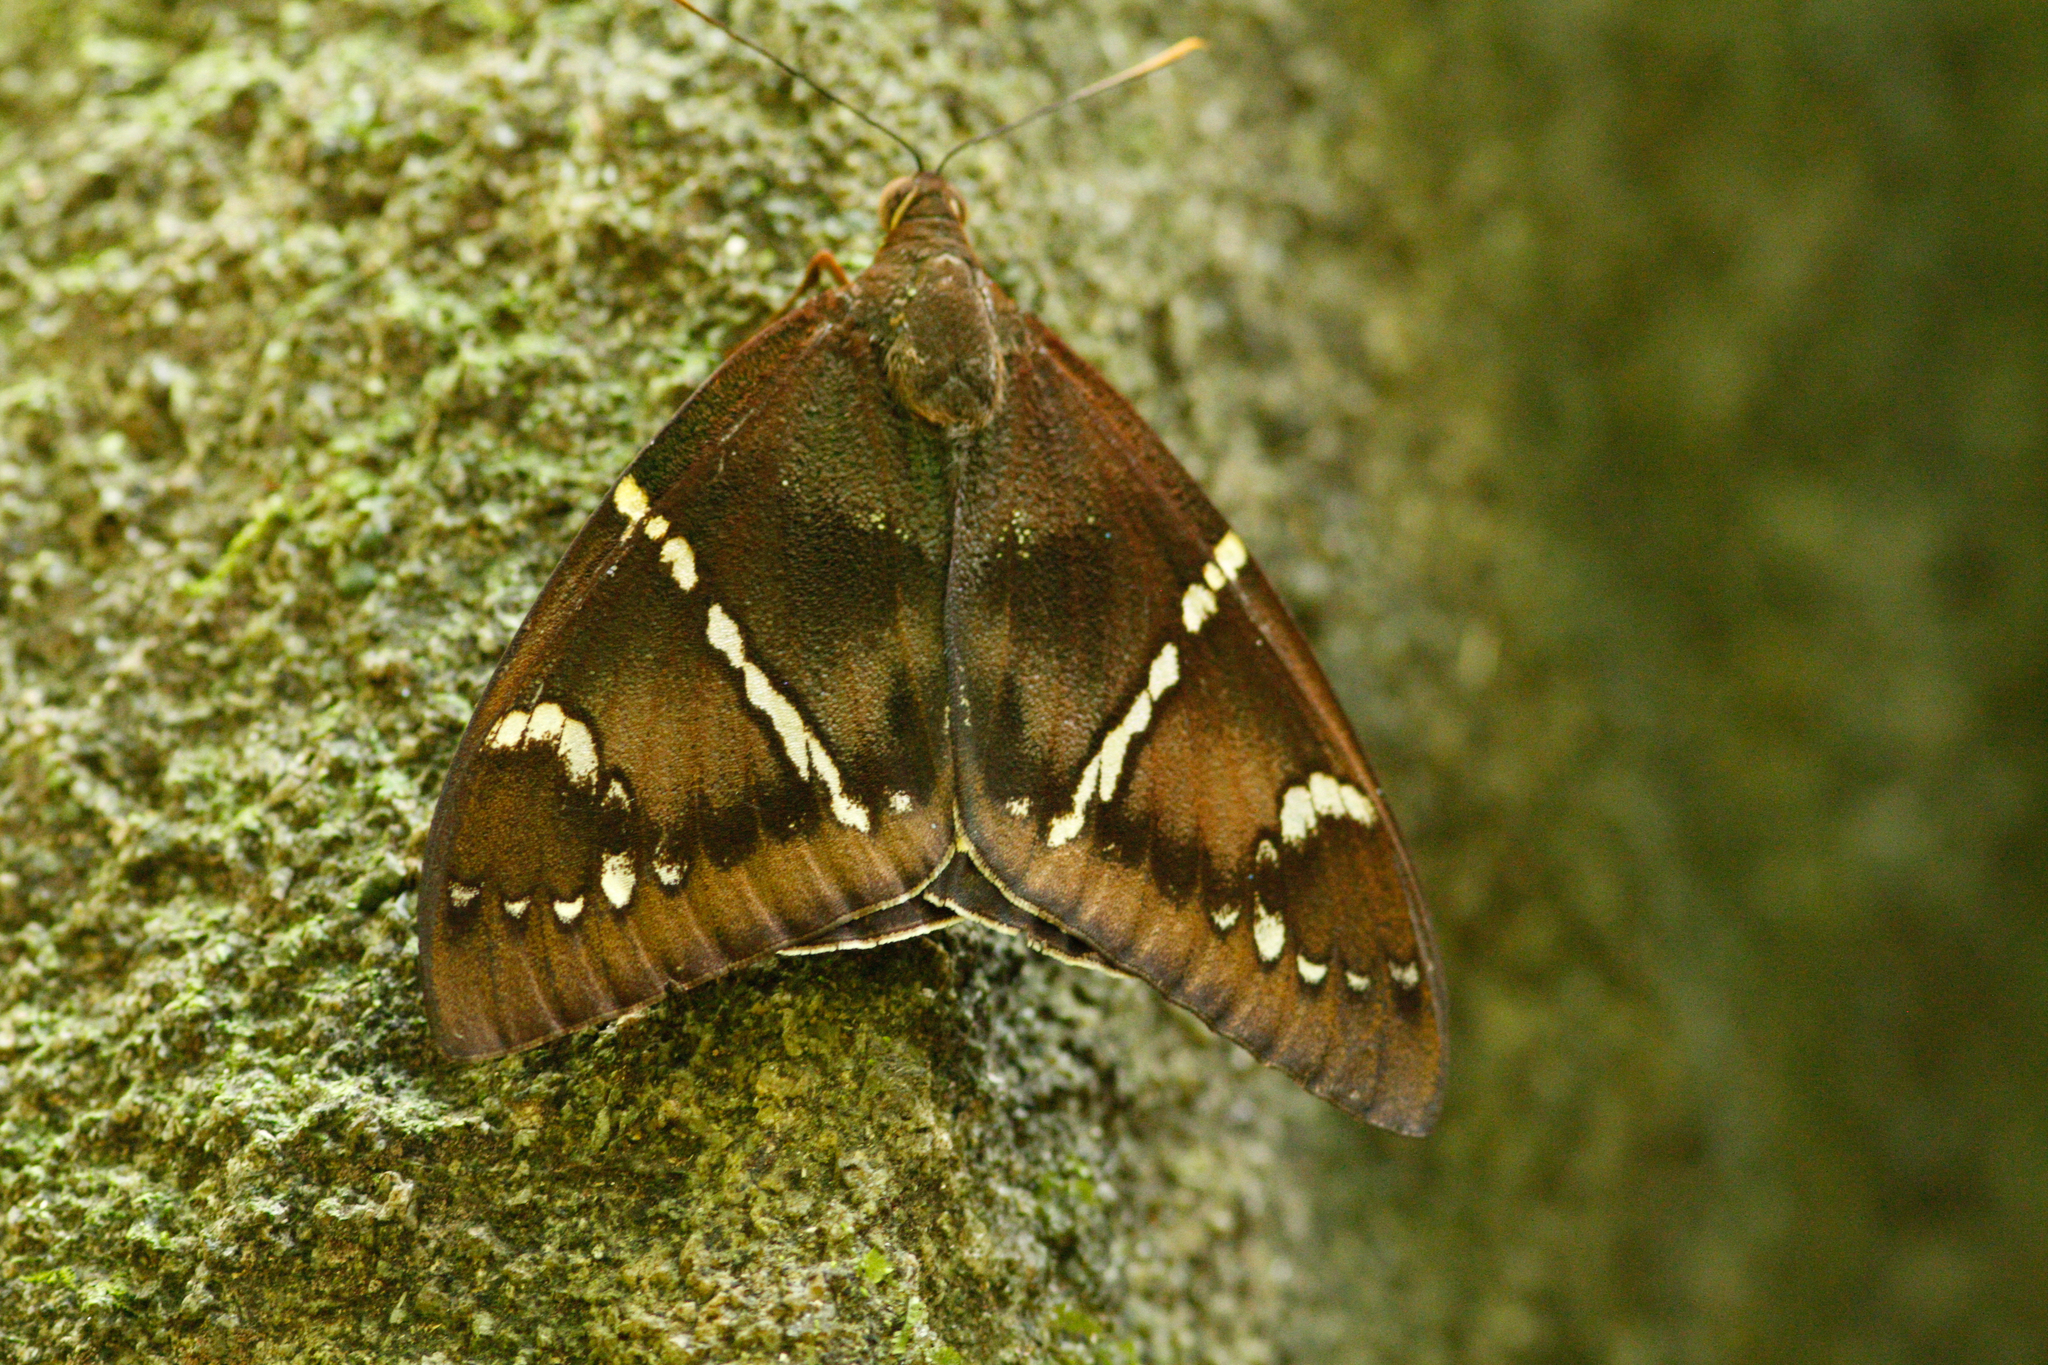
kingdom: Animalia
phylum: Arthropoda
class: Insecta
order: Lepidoptera
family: Castniidae
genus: Eupalamides
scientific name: Eupalamides cyparissias
